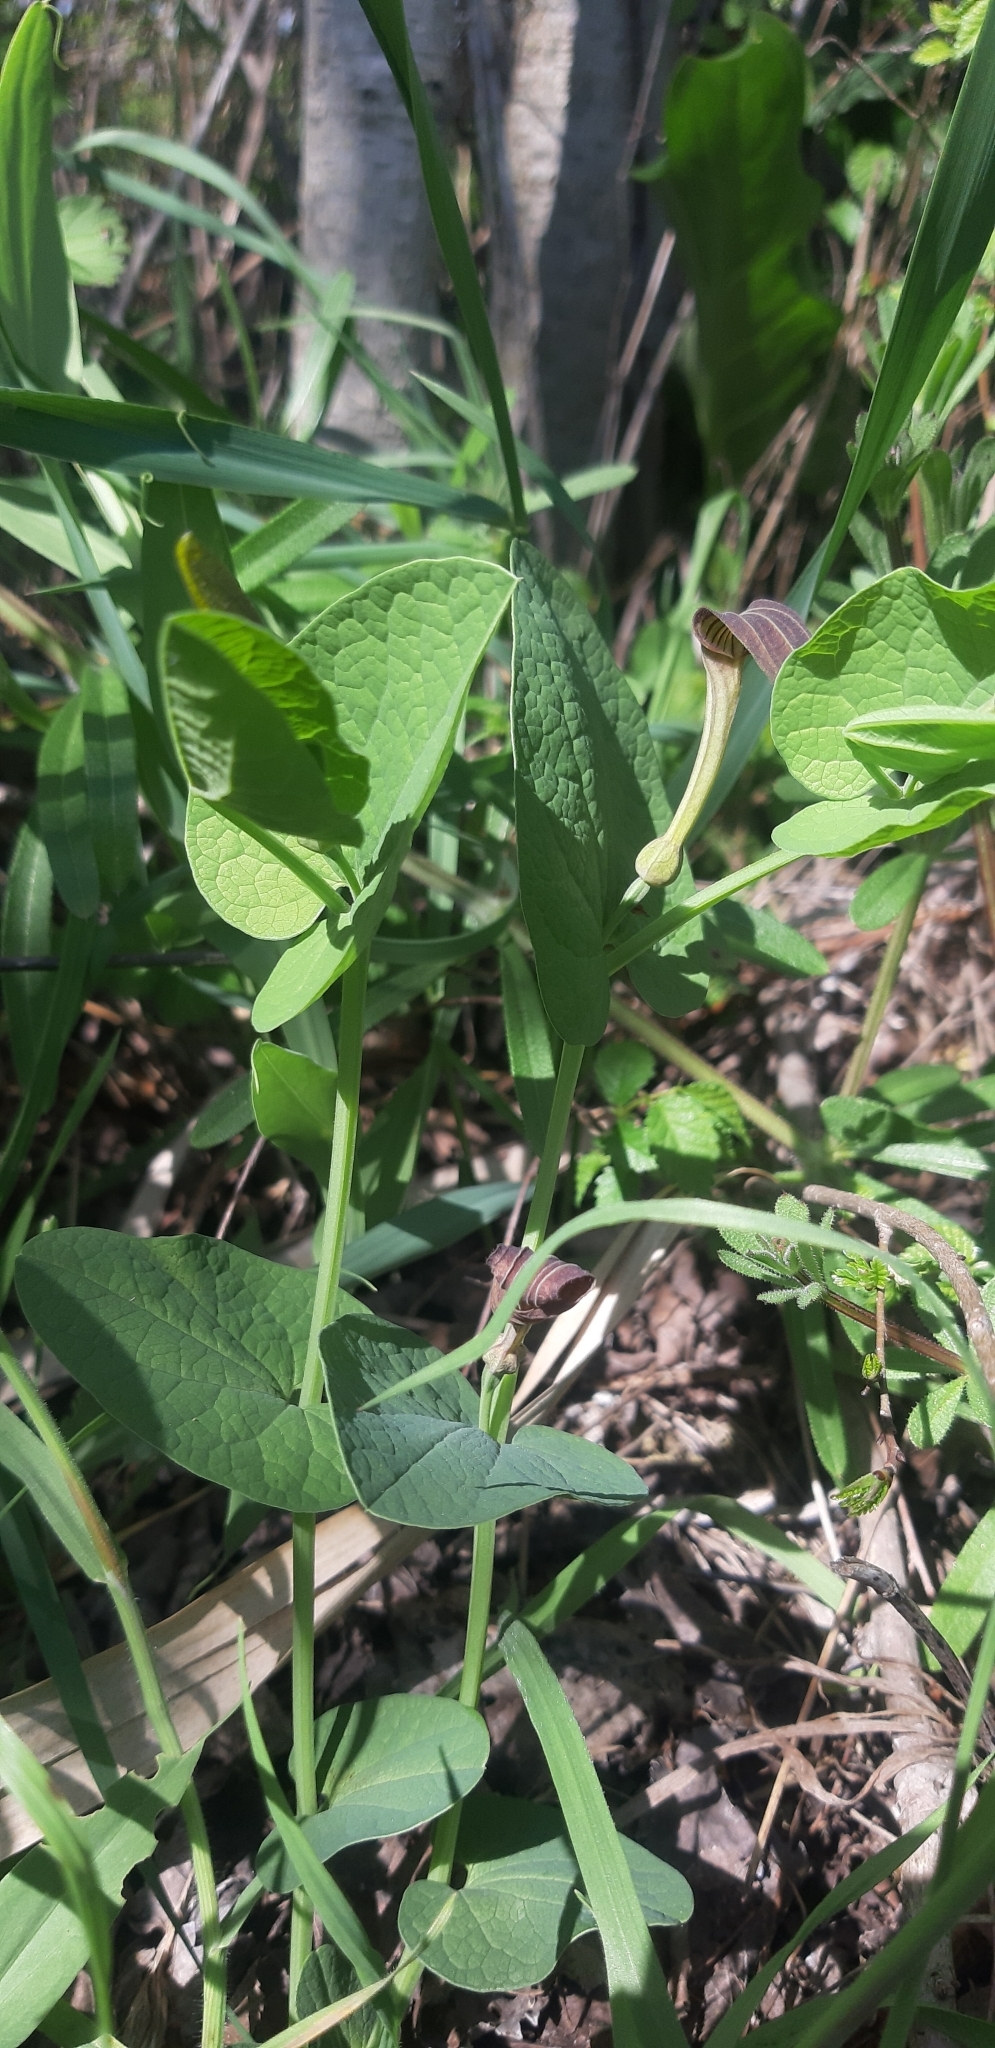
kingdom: Plantae
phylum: Tracheophyta
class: Magnoliopsida
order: Piperales
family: Aristolochiaceae
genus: Aristolochia
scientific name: Aristolochia rotunda
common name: Smearwort
